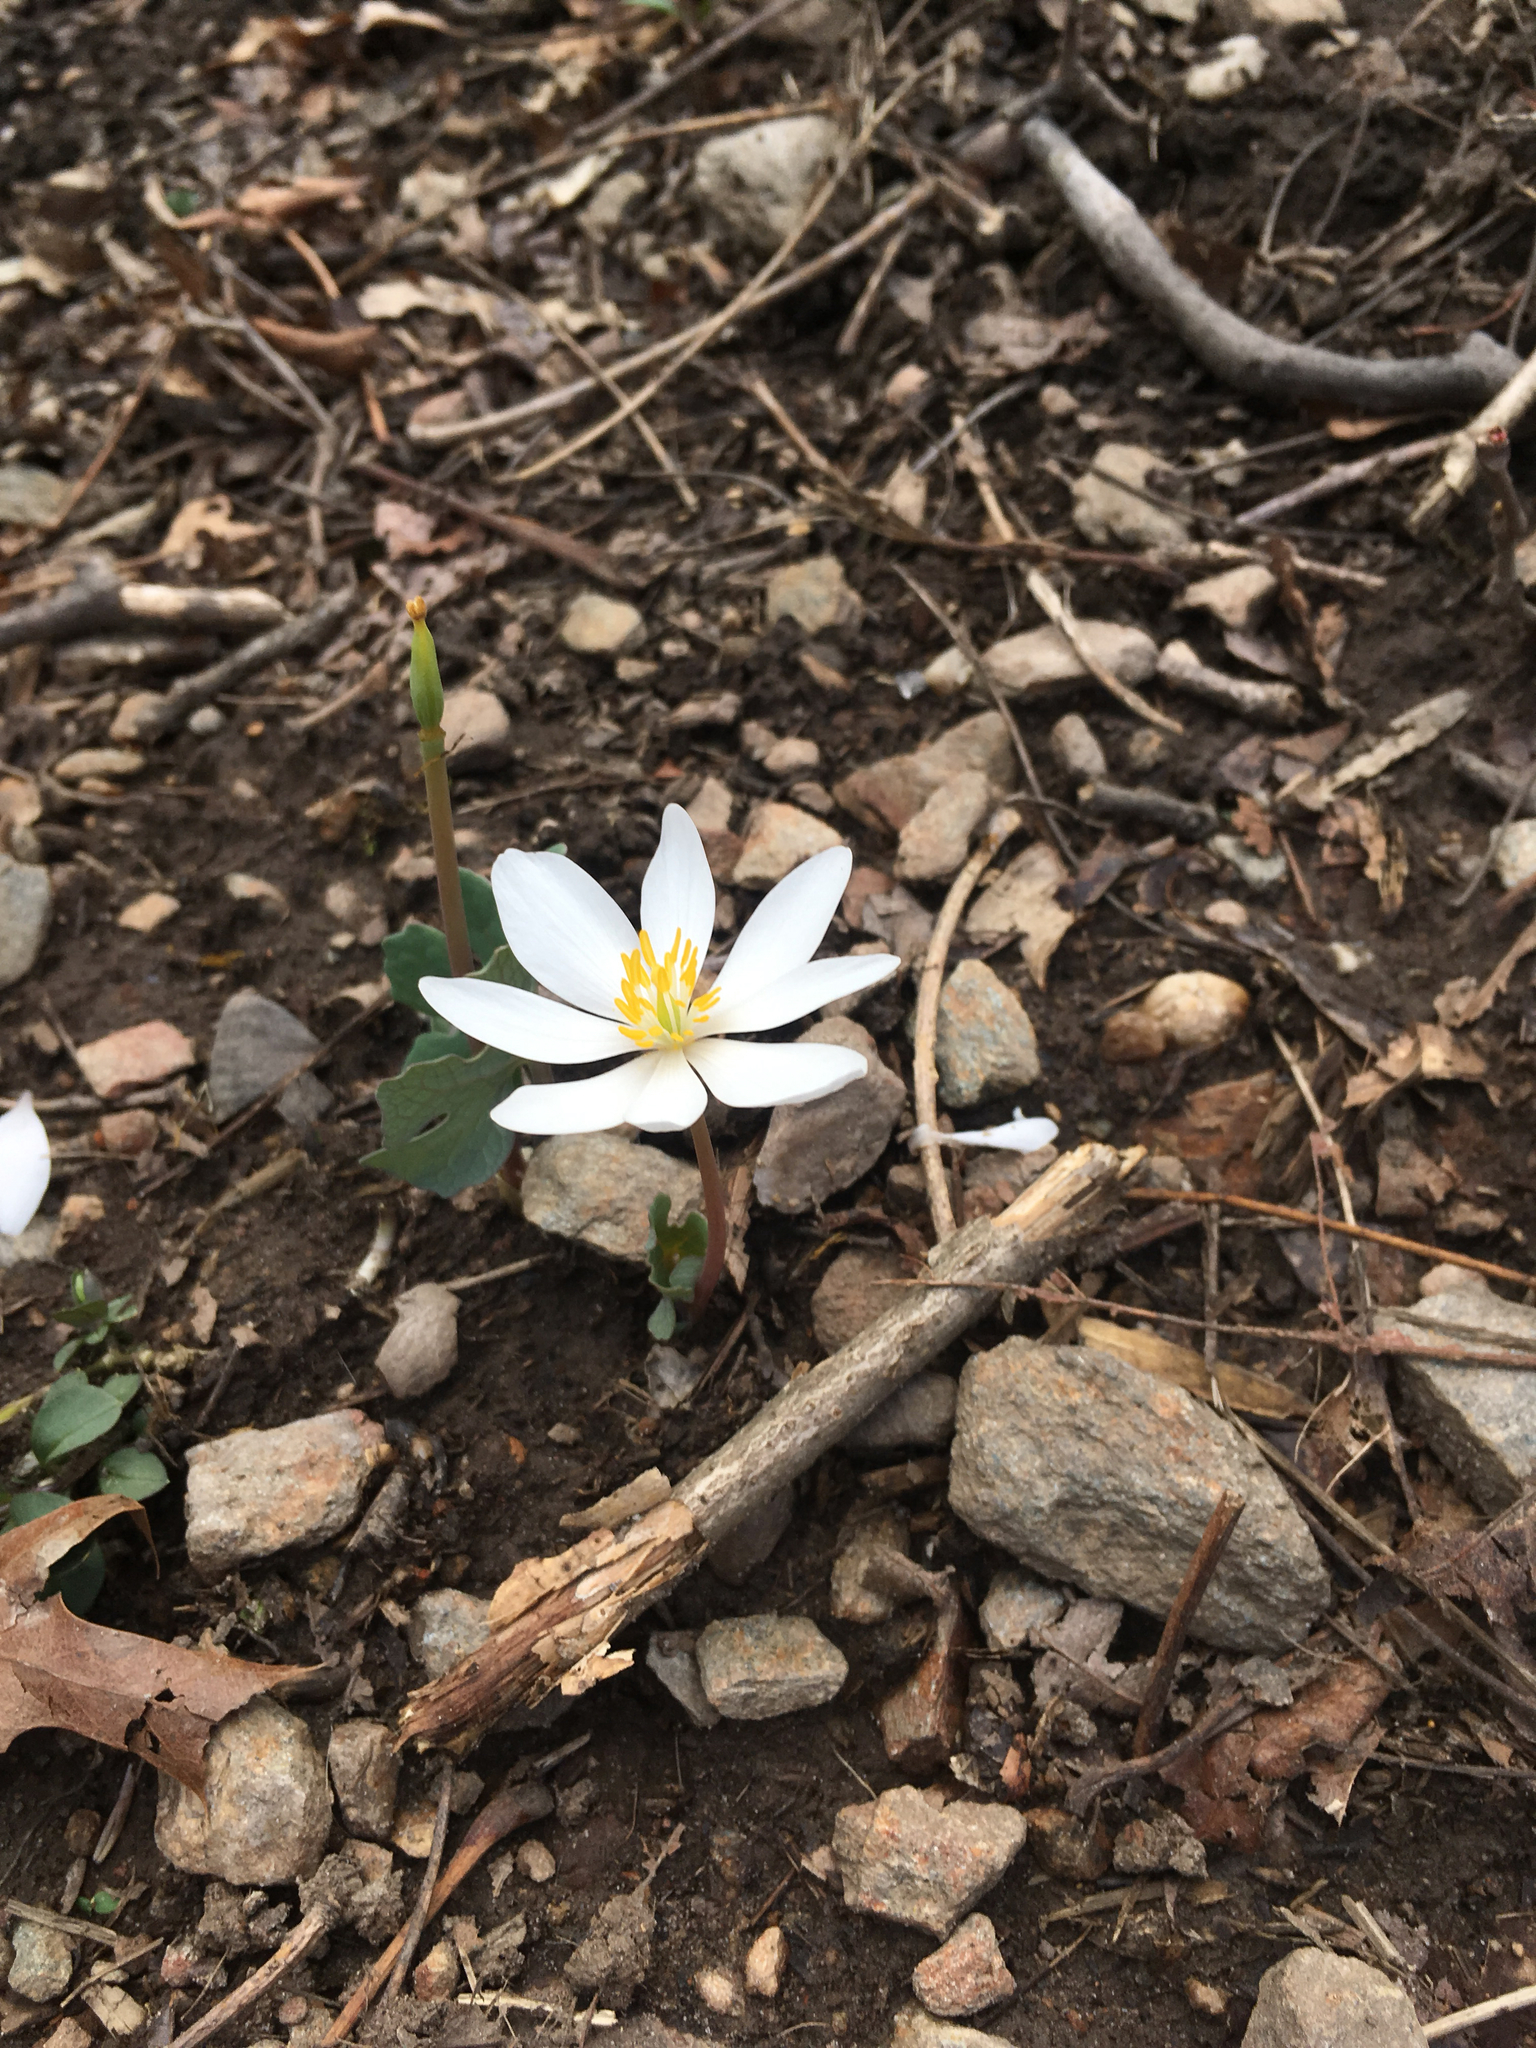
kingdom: Plantae
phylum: Tracheophyta
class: Magnoliopsida
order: Ranunculales
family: Papaveraceae
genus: Sanguinaria
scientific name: Sanguinaria canadensis
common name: Bloodroot
